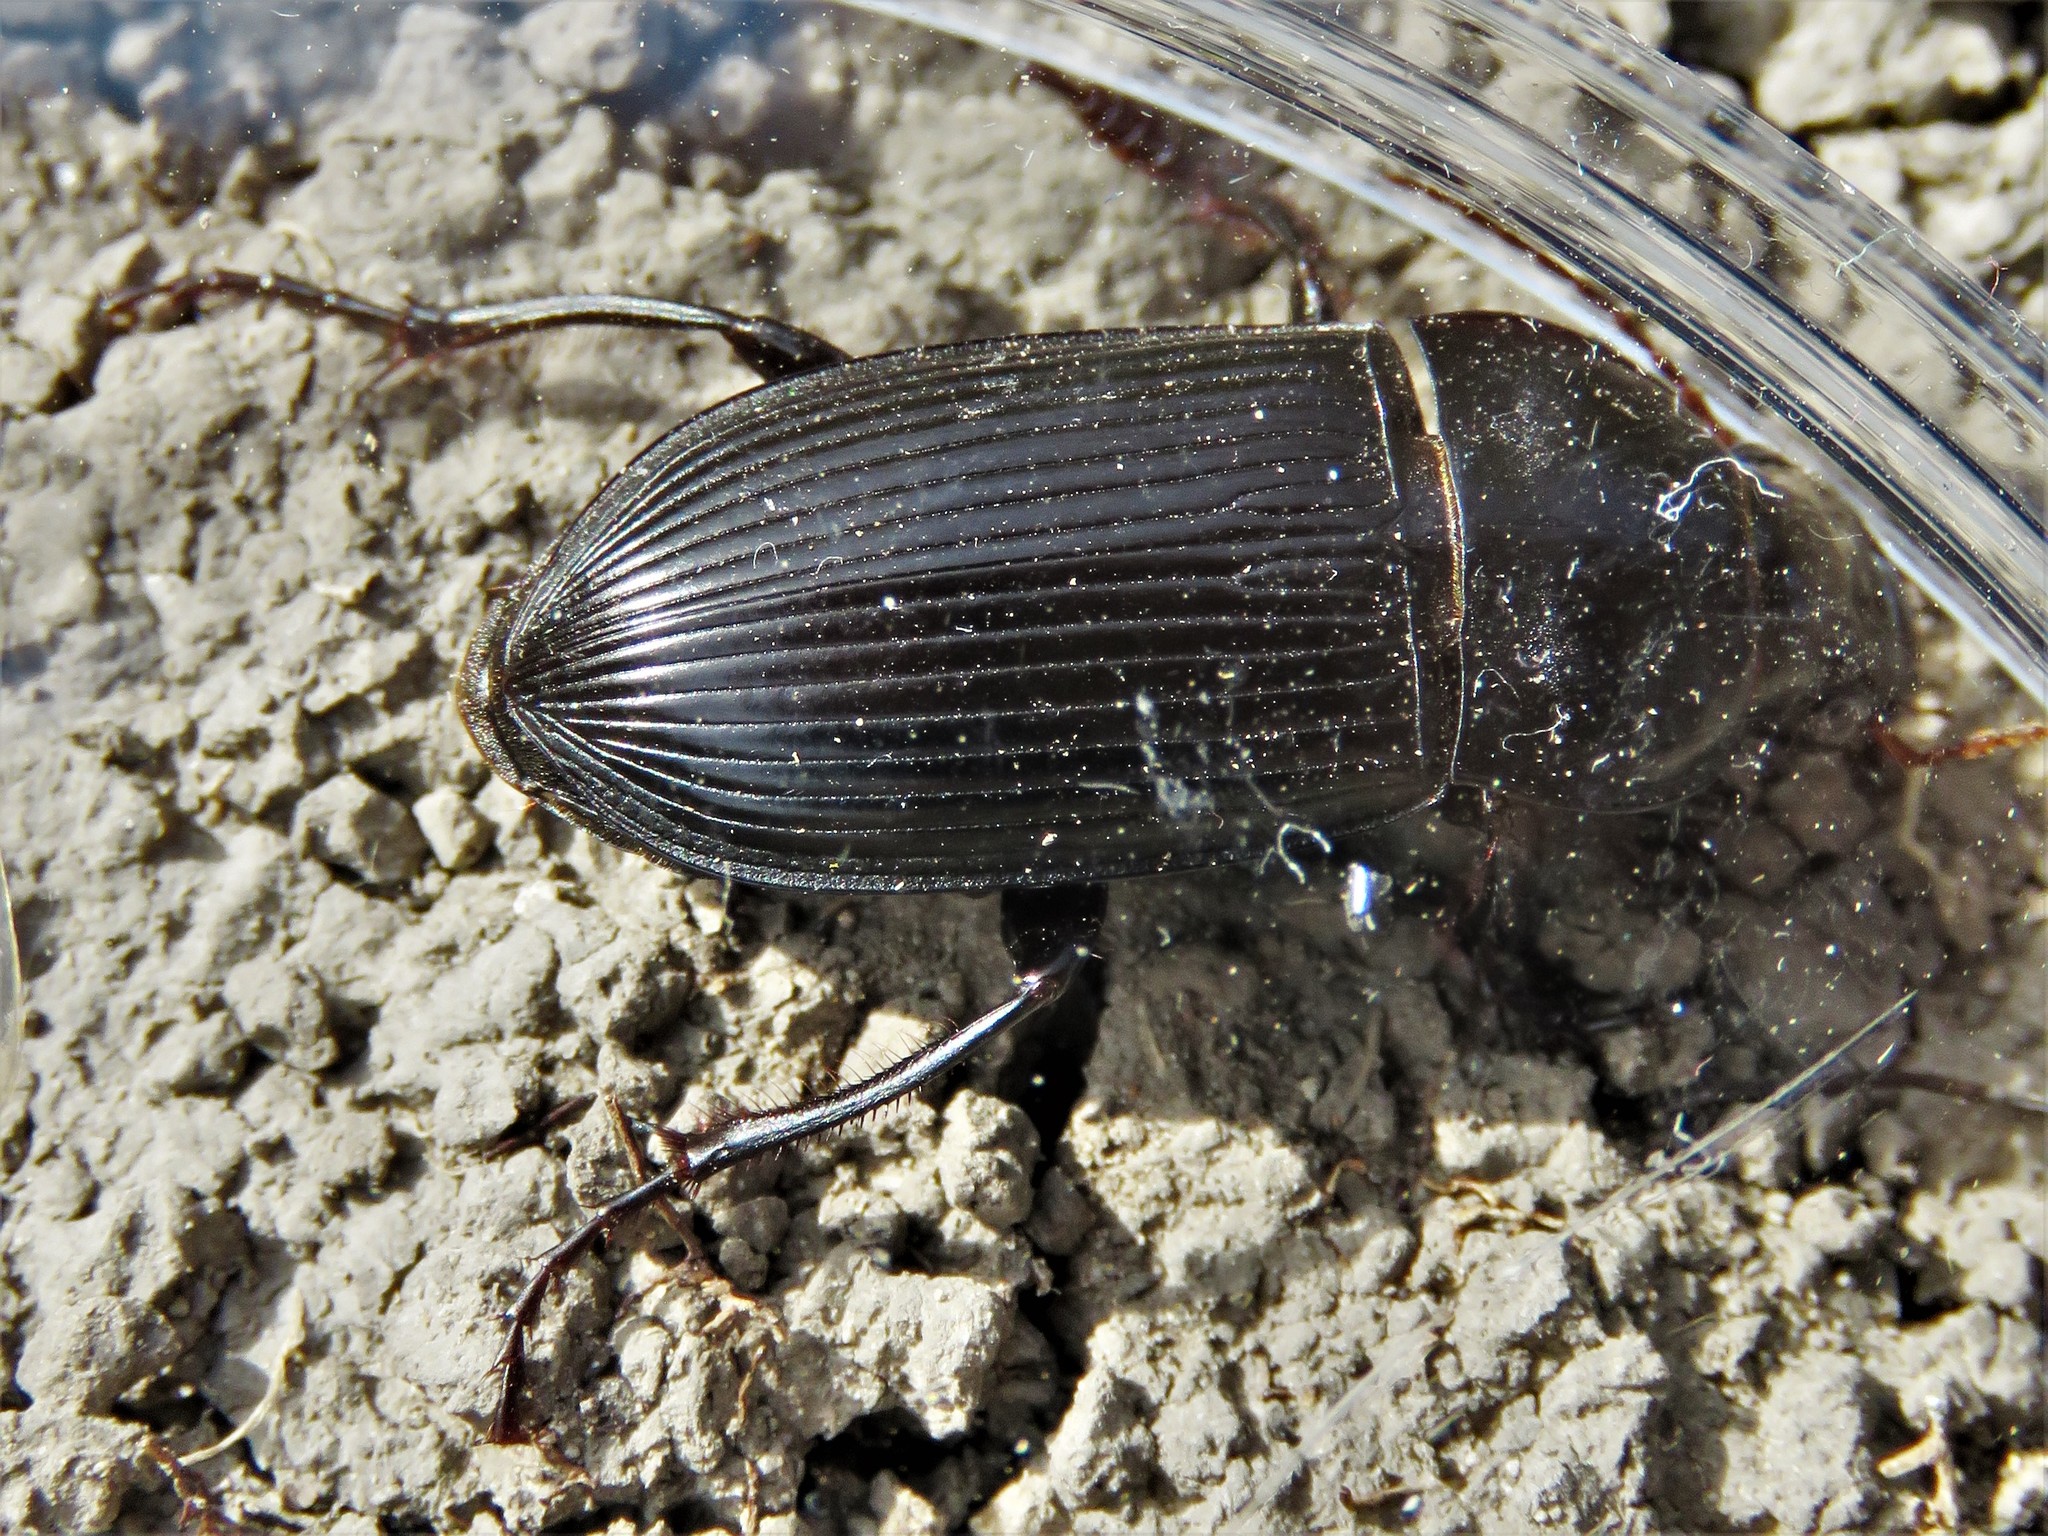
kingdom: Animalia
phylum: Arthropoda
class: Insecta
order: Coleoptera
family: Carabidae
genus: Harpalus
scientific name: Harpalus caliginosus
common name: Murky ground beetle
